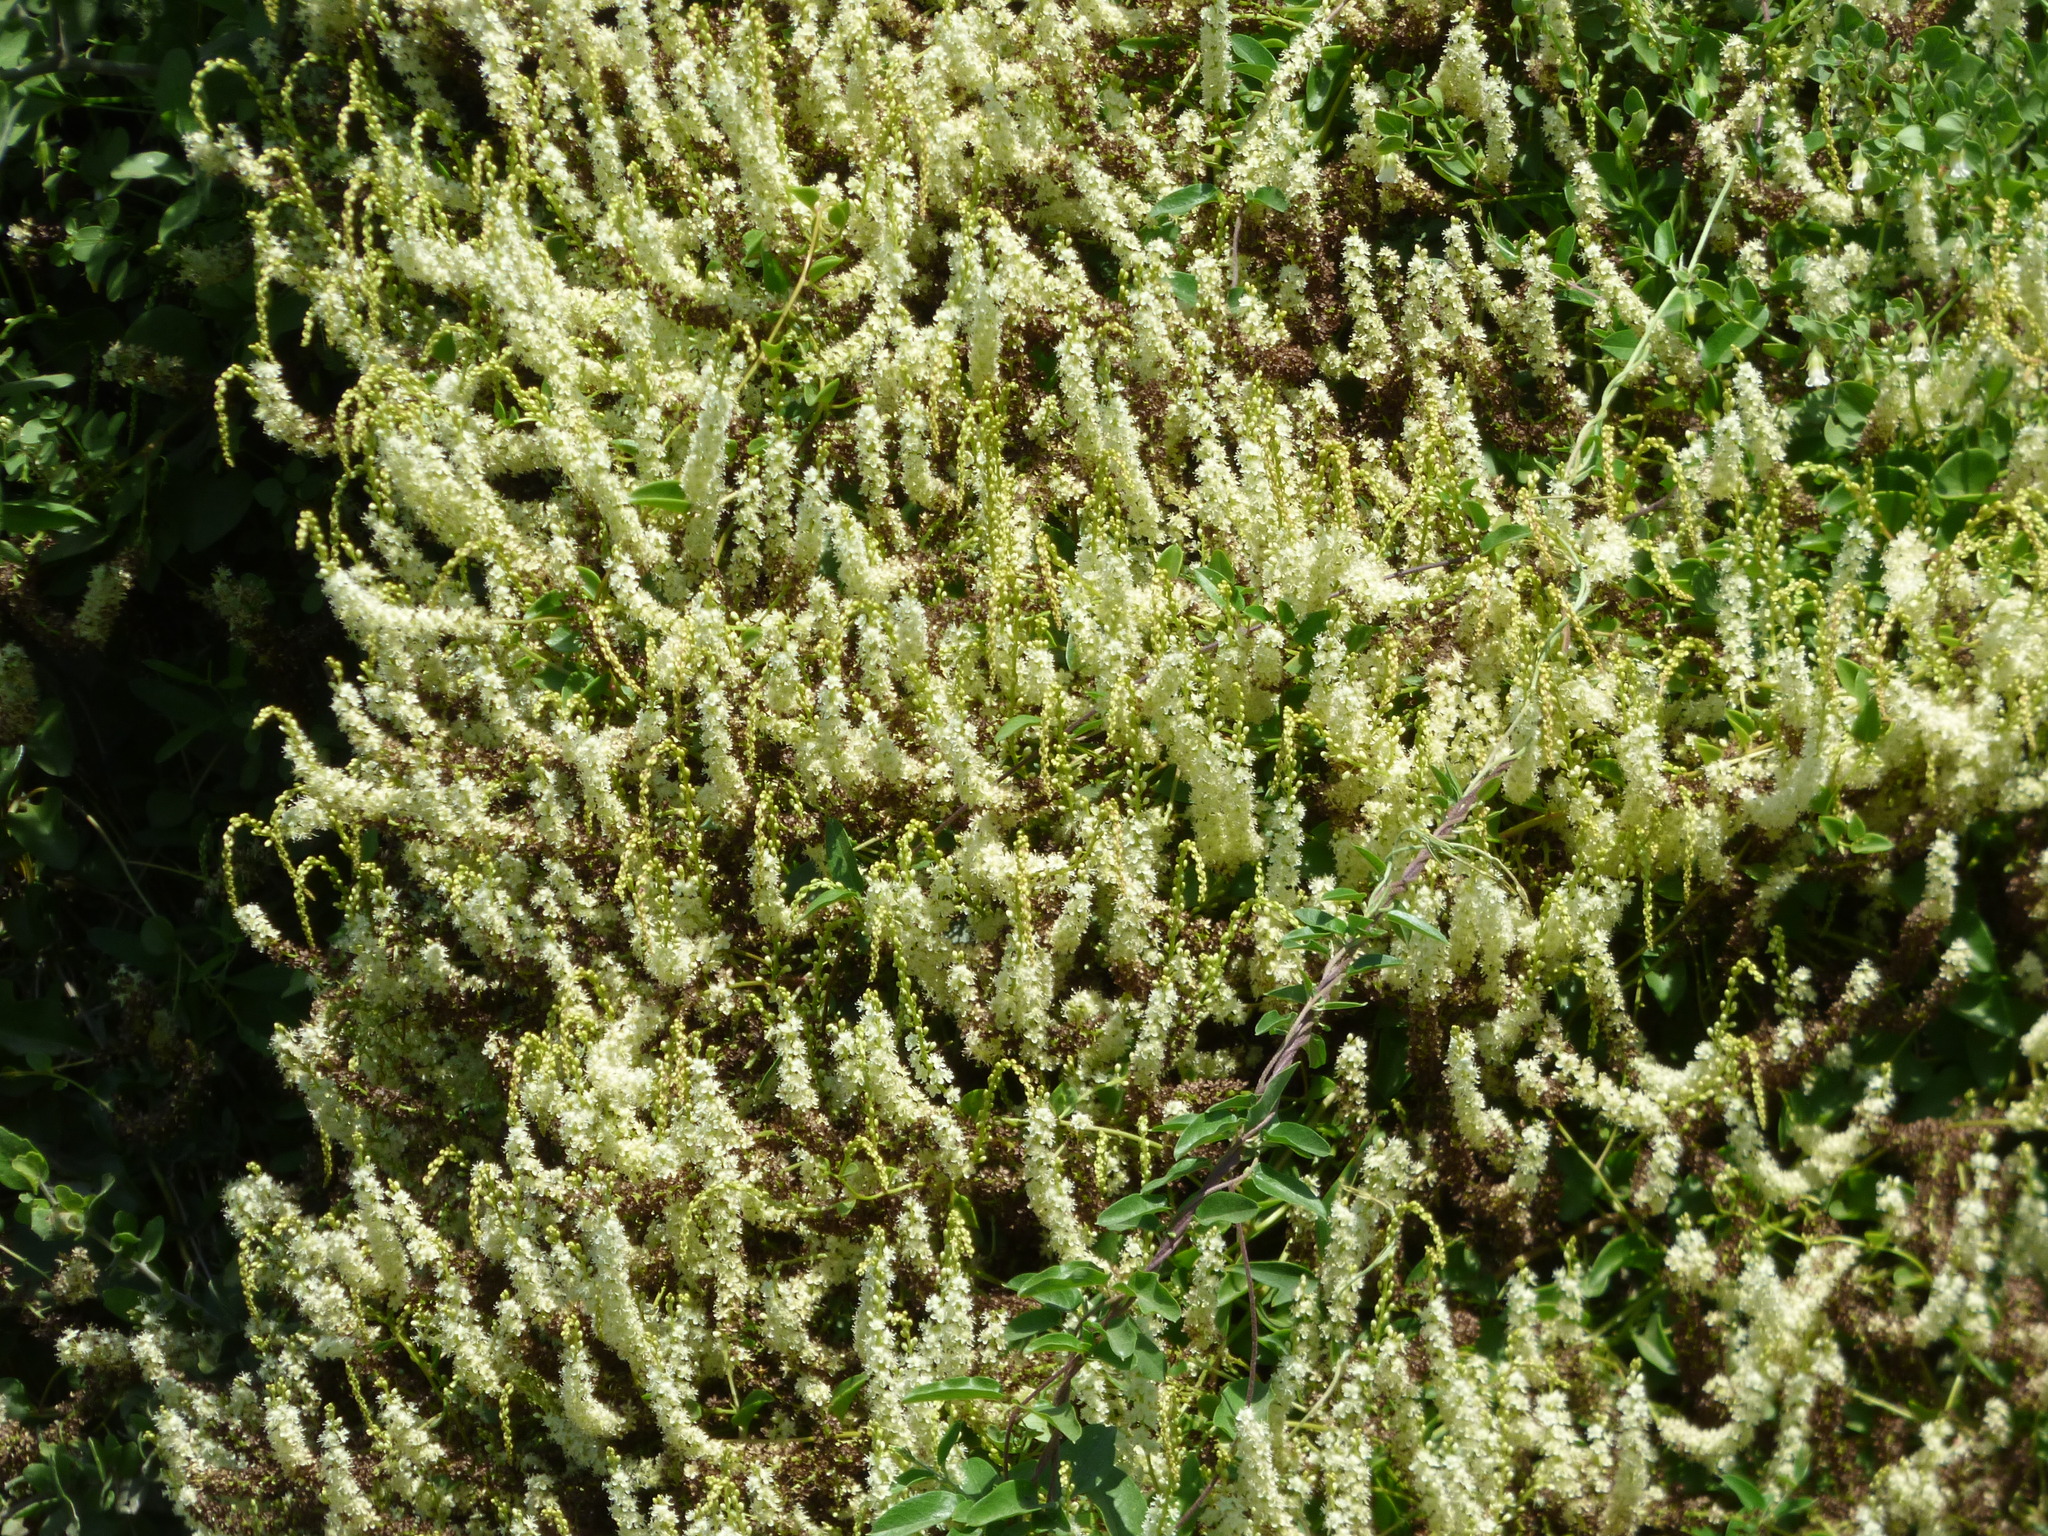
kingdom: Plantae
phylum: Tracheophyta
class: Magnoliopsida
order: Caryophyllales
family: Basellaceae
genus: Anredera
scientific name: Anredera cordifolia
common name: Heartleaf madeiravine
